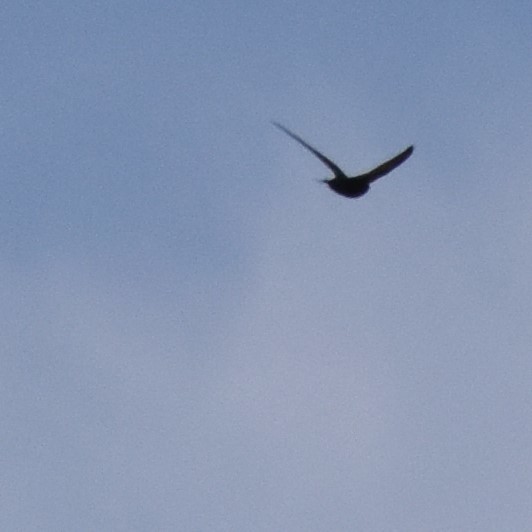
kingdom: Animalia
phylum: Chordata
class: Aves
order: Apodiformes
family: Apodidae
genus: Apus
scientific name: Apus apus
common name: Common swift
